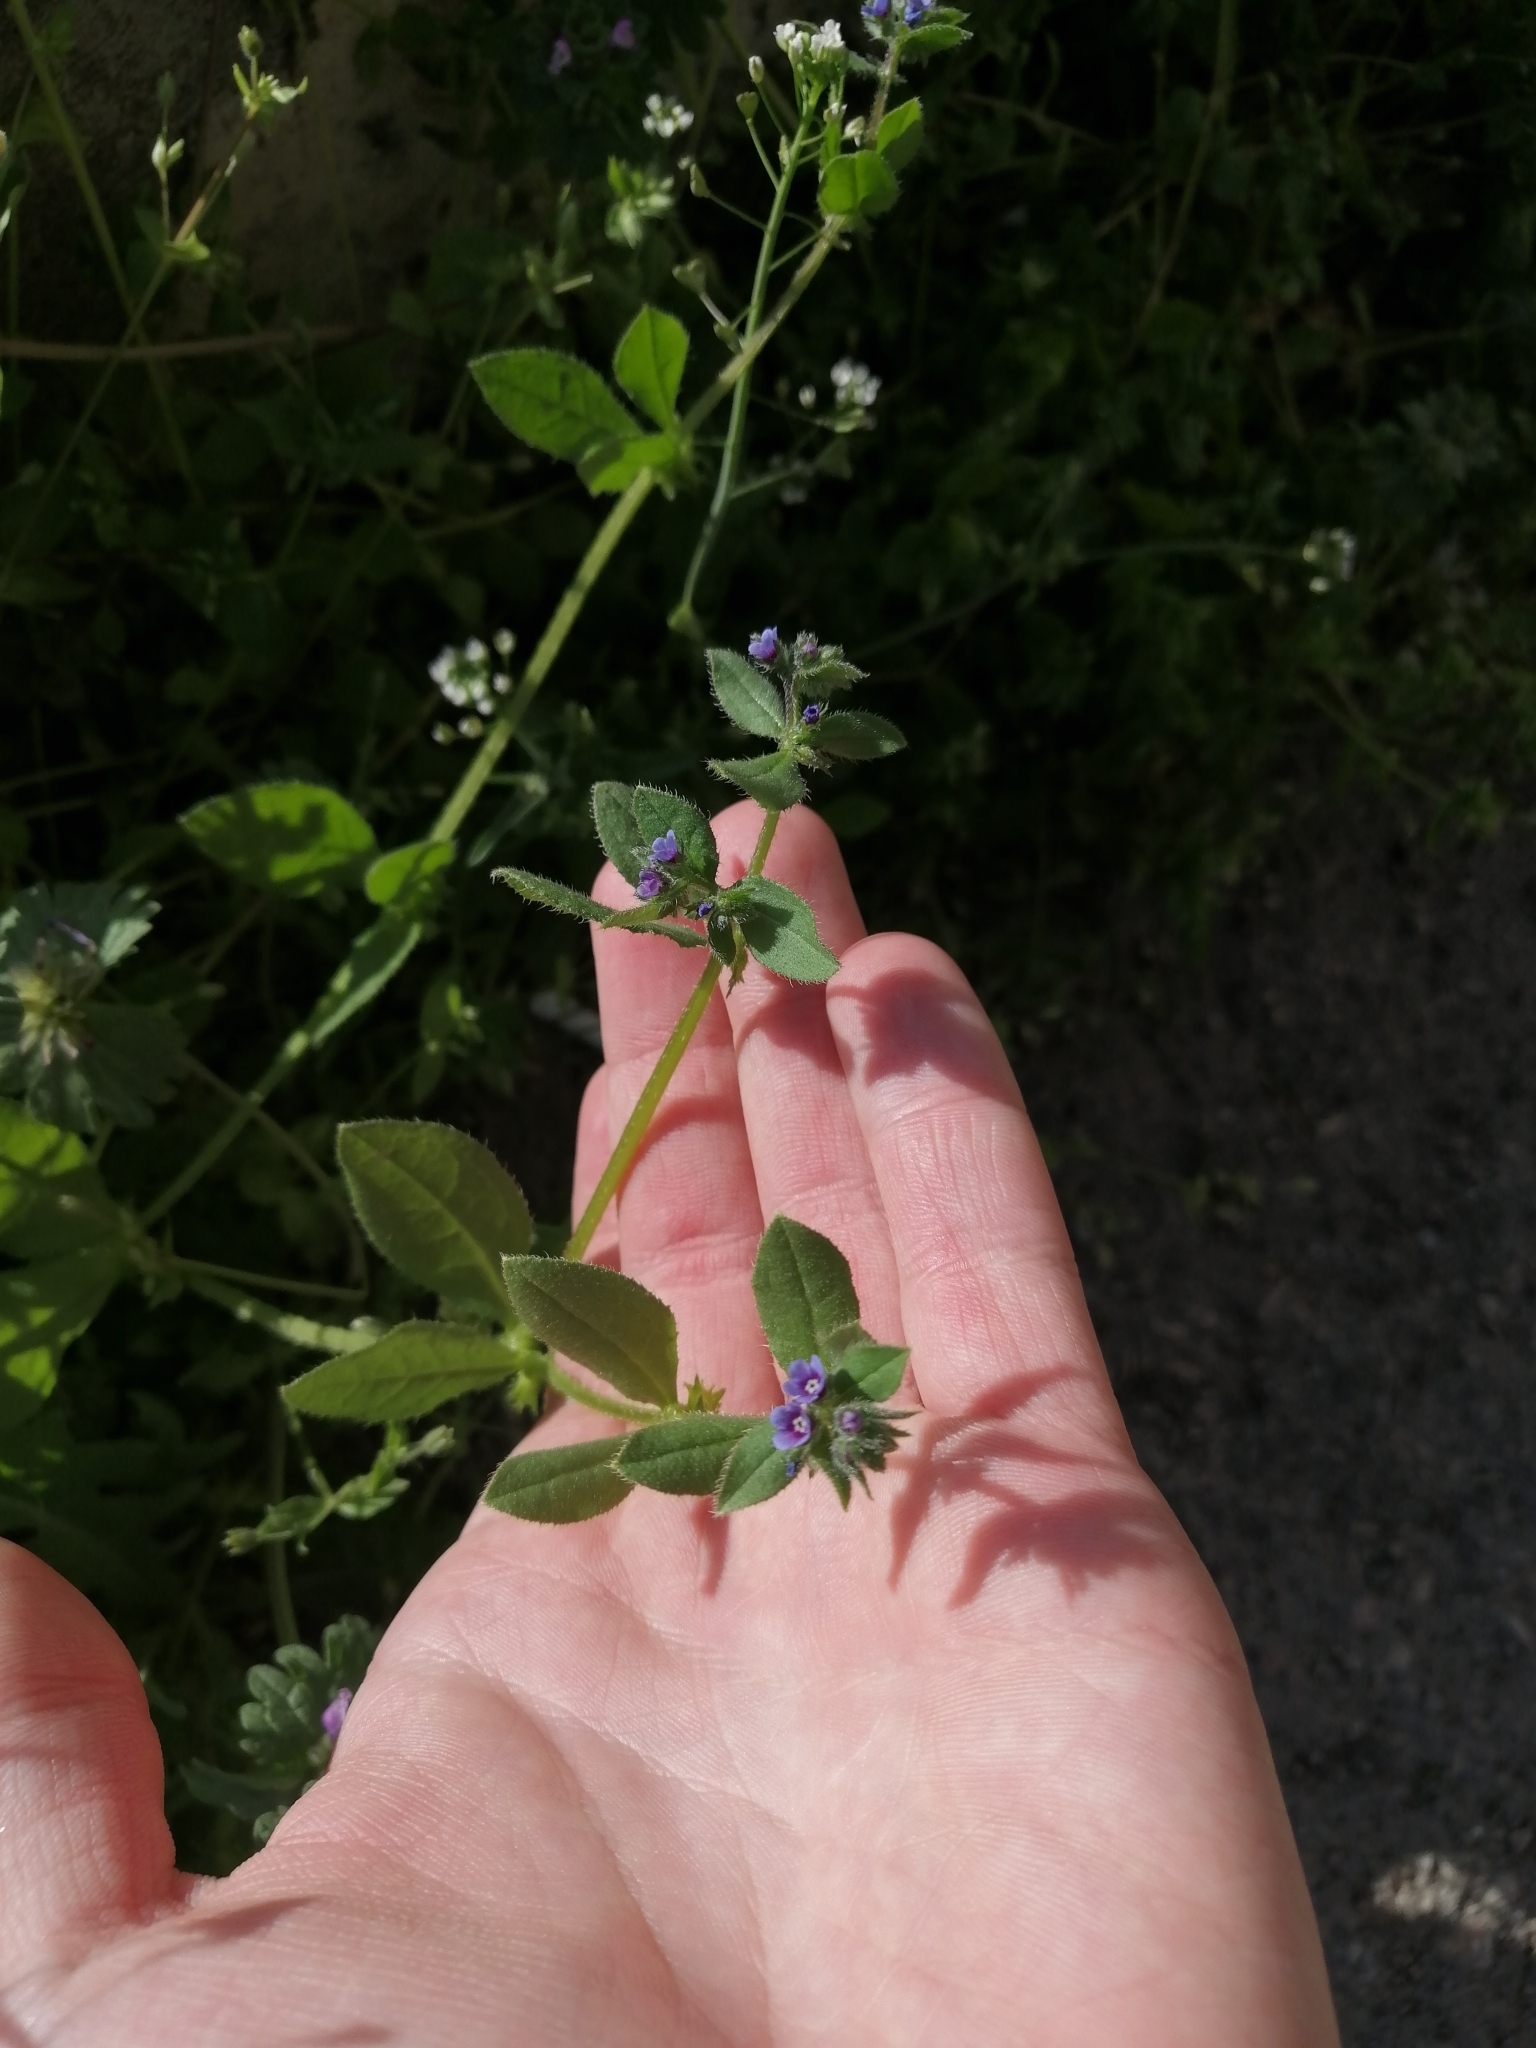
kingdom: Plantae
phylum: Tracheophyta
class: Magnoliopsida
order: Boraginales
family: Boraginaceae
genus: Asperugo
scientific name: Asperugo procumbens
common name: Madwort
